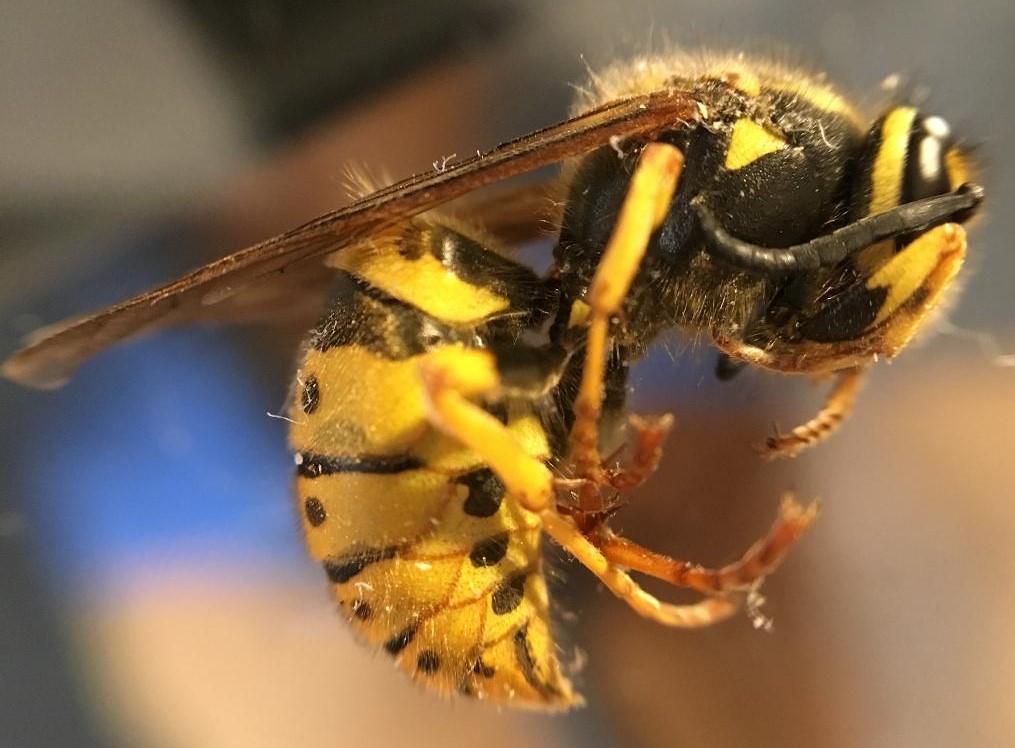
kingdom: Animalia
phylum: Arthropoda
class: Insecta
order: Hymenoptera
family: Vespidae
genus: Vespula
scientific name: Vespula germanica
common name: German wasp
